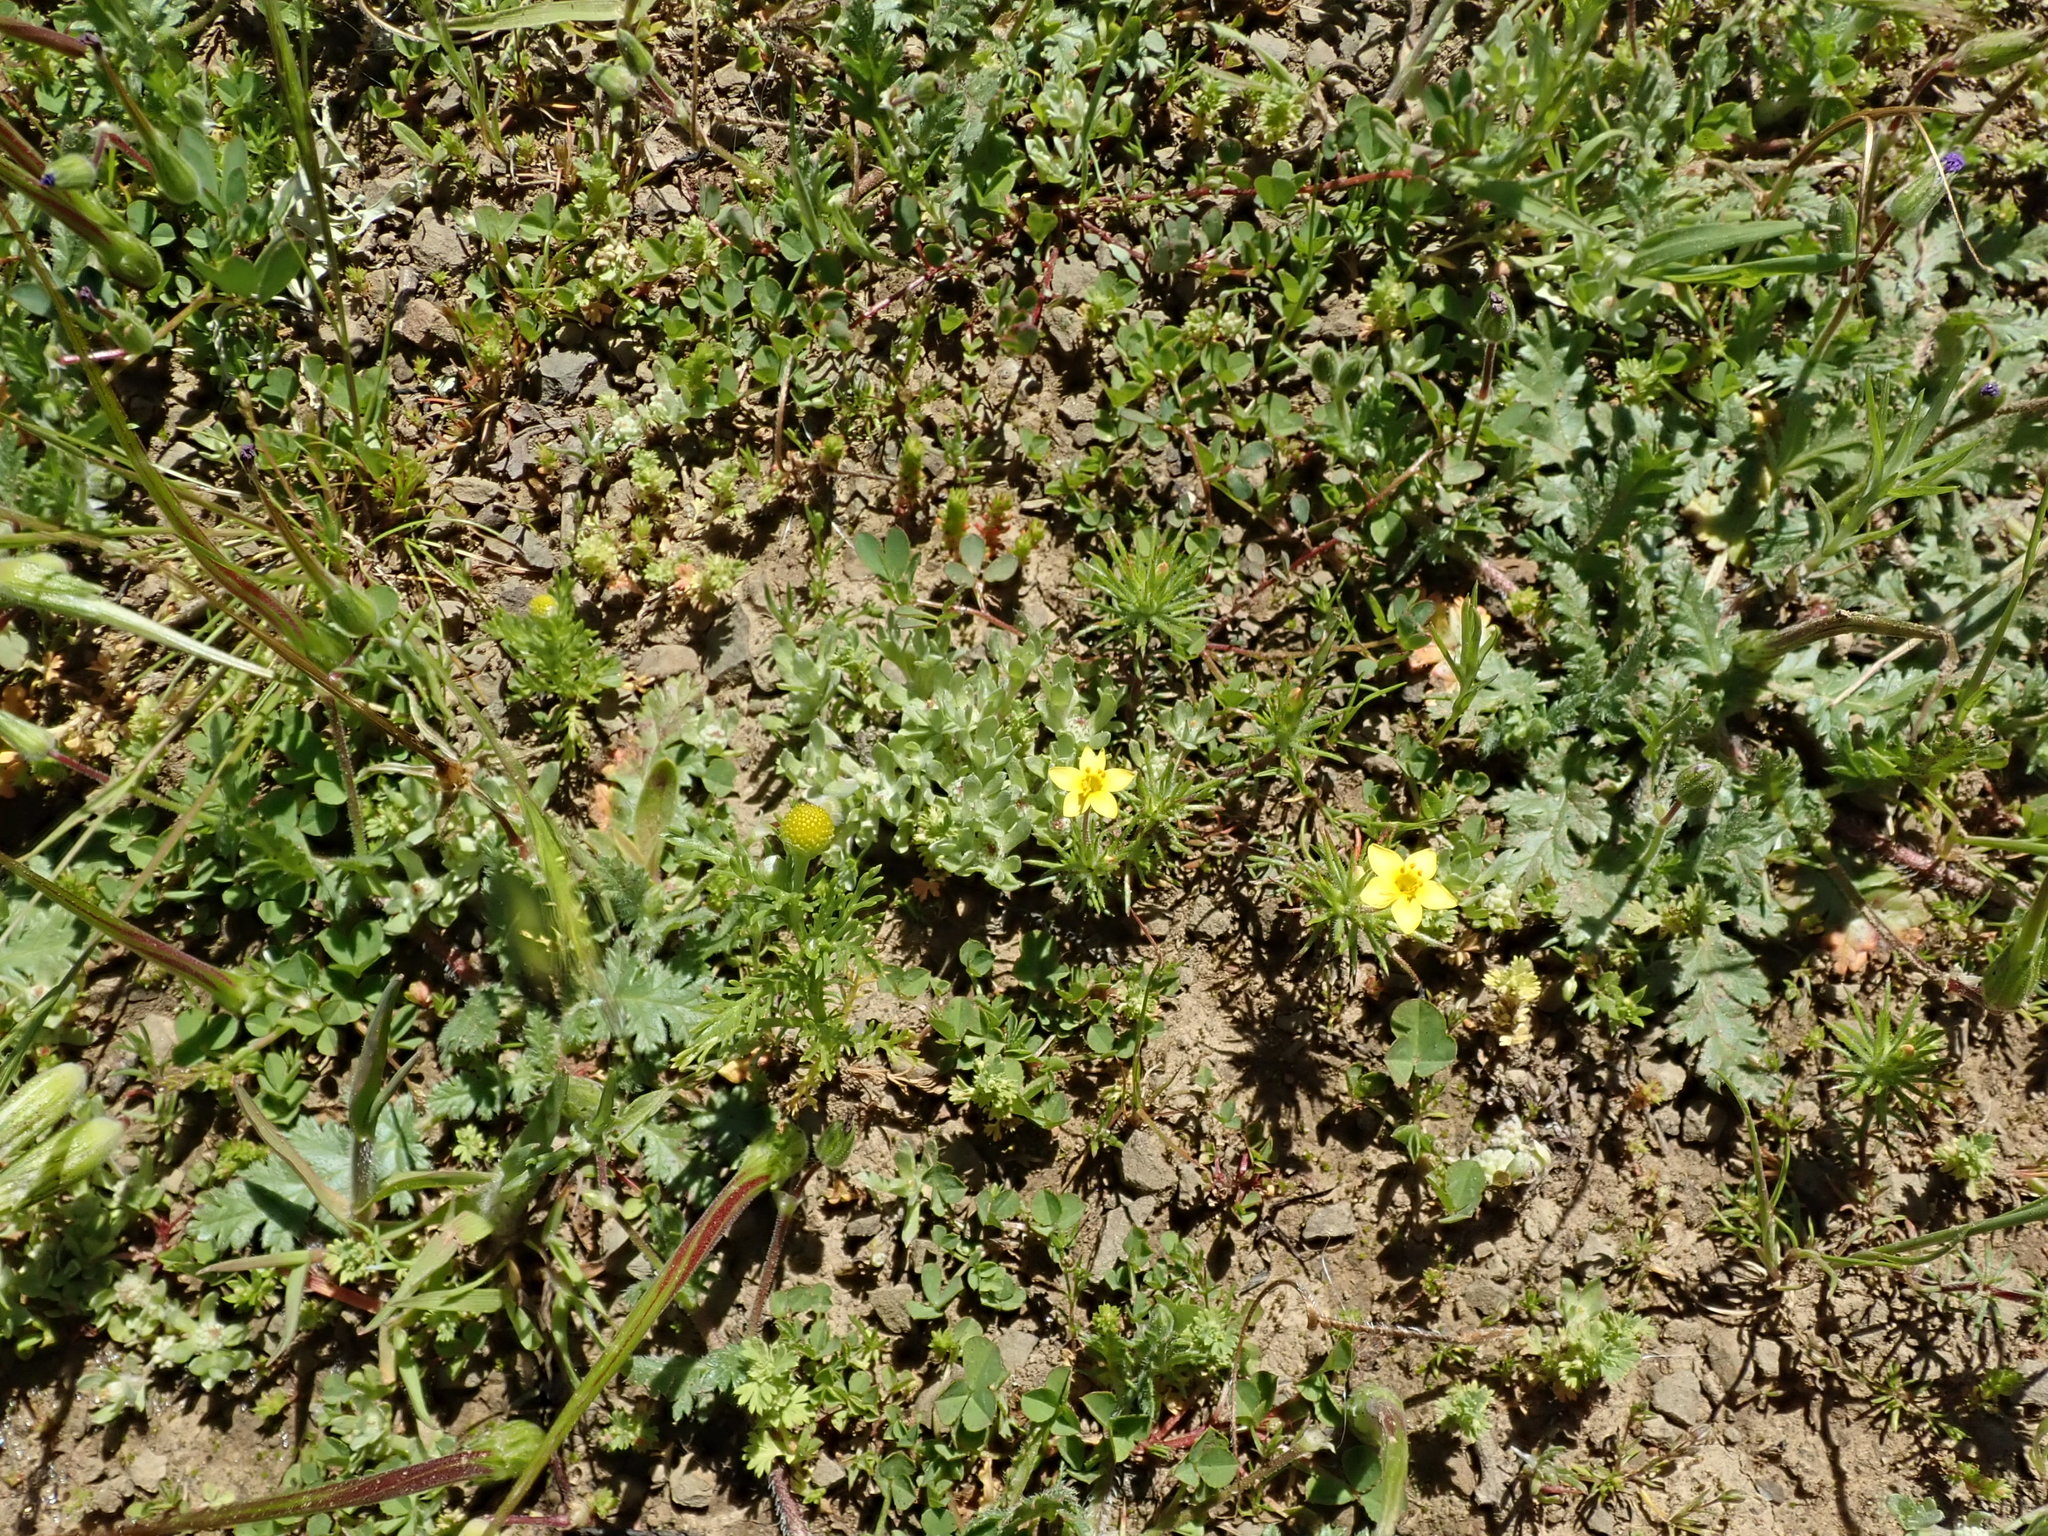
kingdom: Plantae
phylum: Tracheophyta
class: Magnoliopsida
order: Ericales
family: Polemoniaceae
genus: Leptosiphon
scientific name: Leptosiphon acicularis
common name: Bristly linanthus
